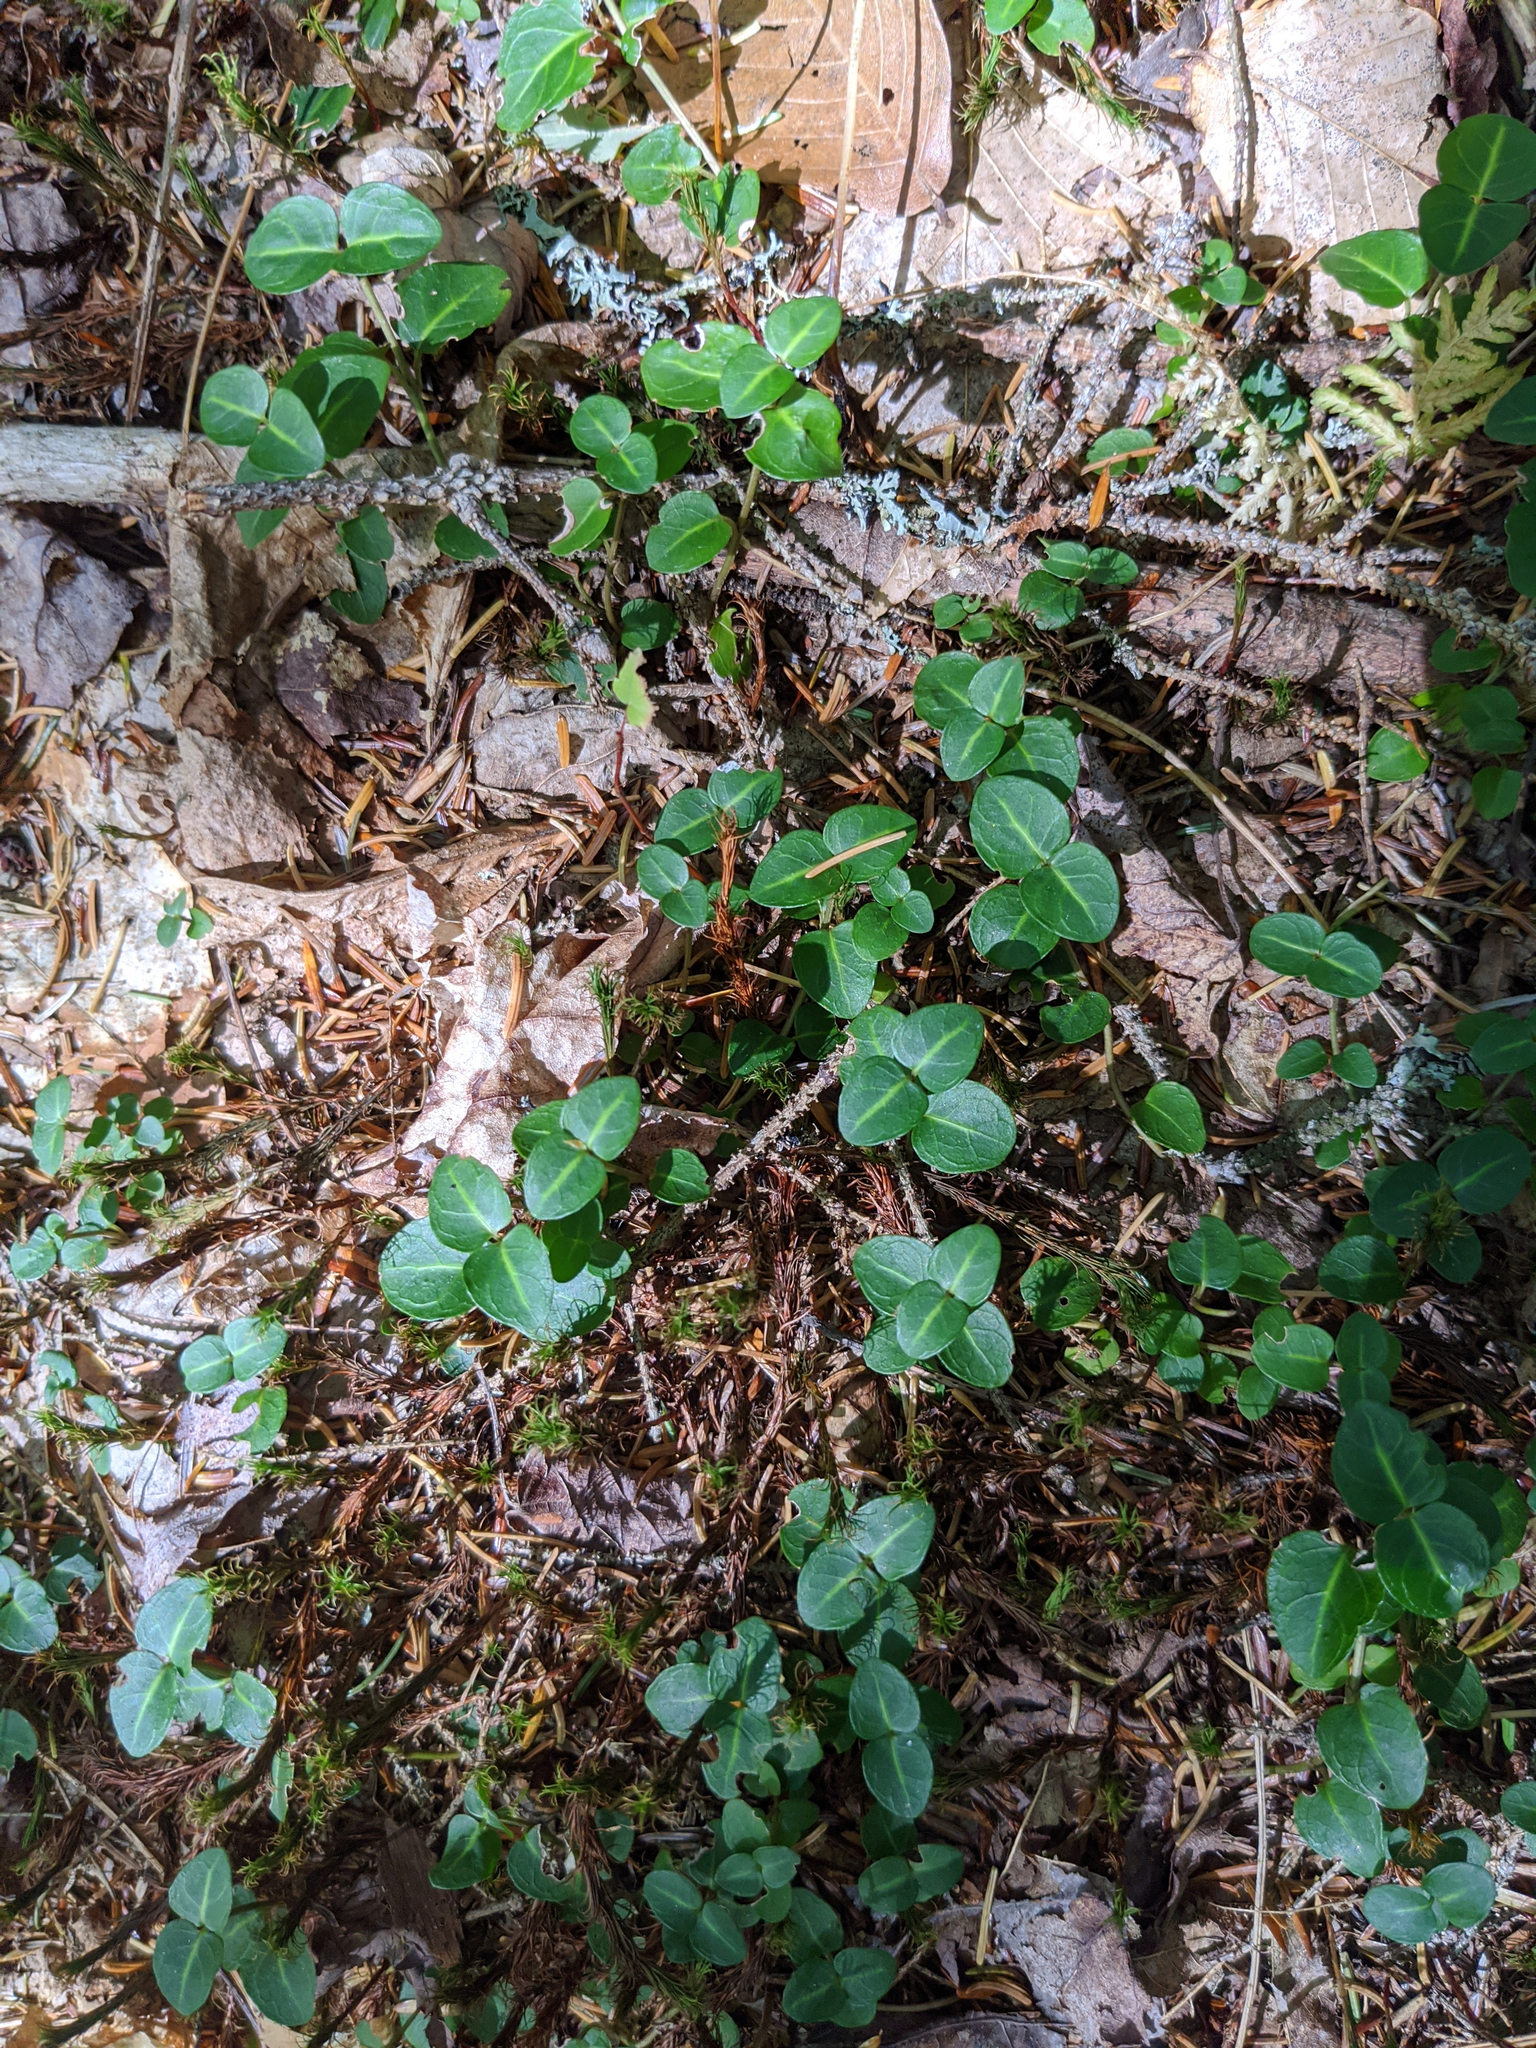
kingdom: Plantae
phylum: Tracheophyta
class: Magnoliopsida
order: Gentianales
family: Rubiaceae
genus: Mitchella
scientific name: Mitchella repens
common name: Partridge-berry
